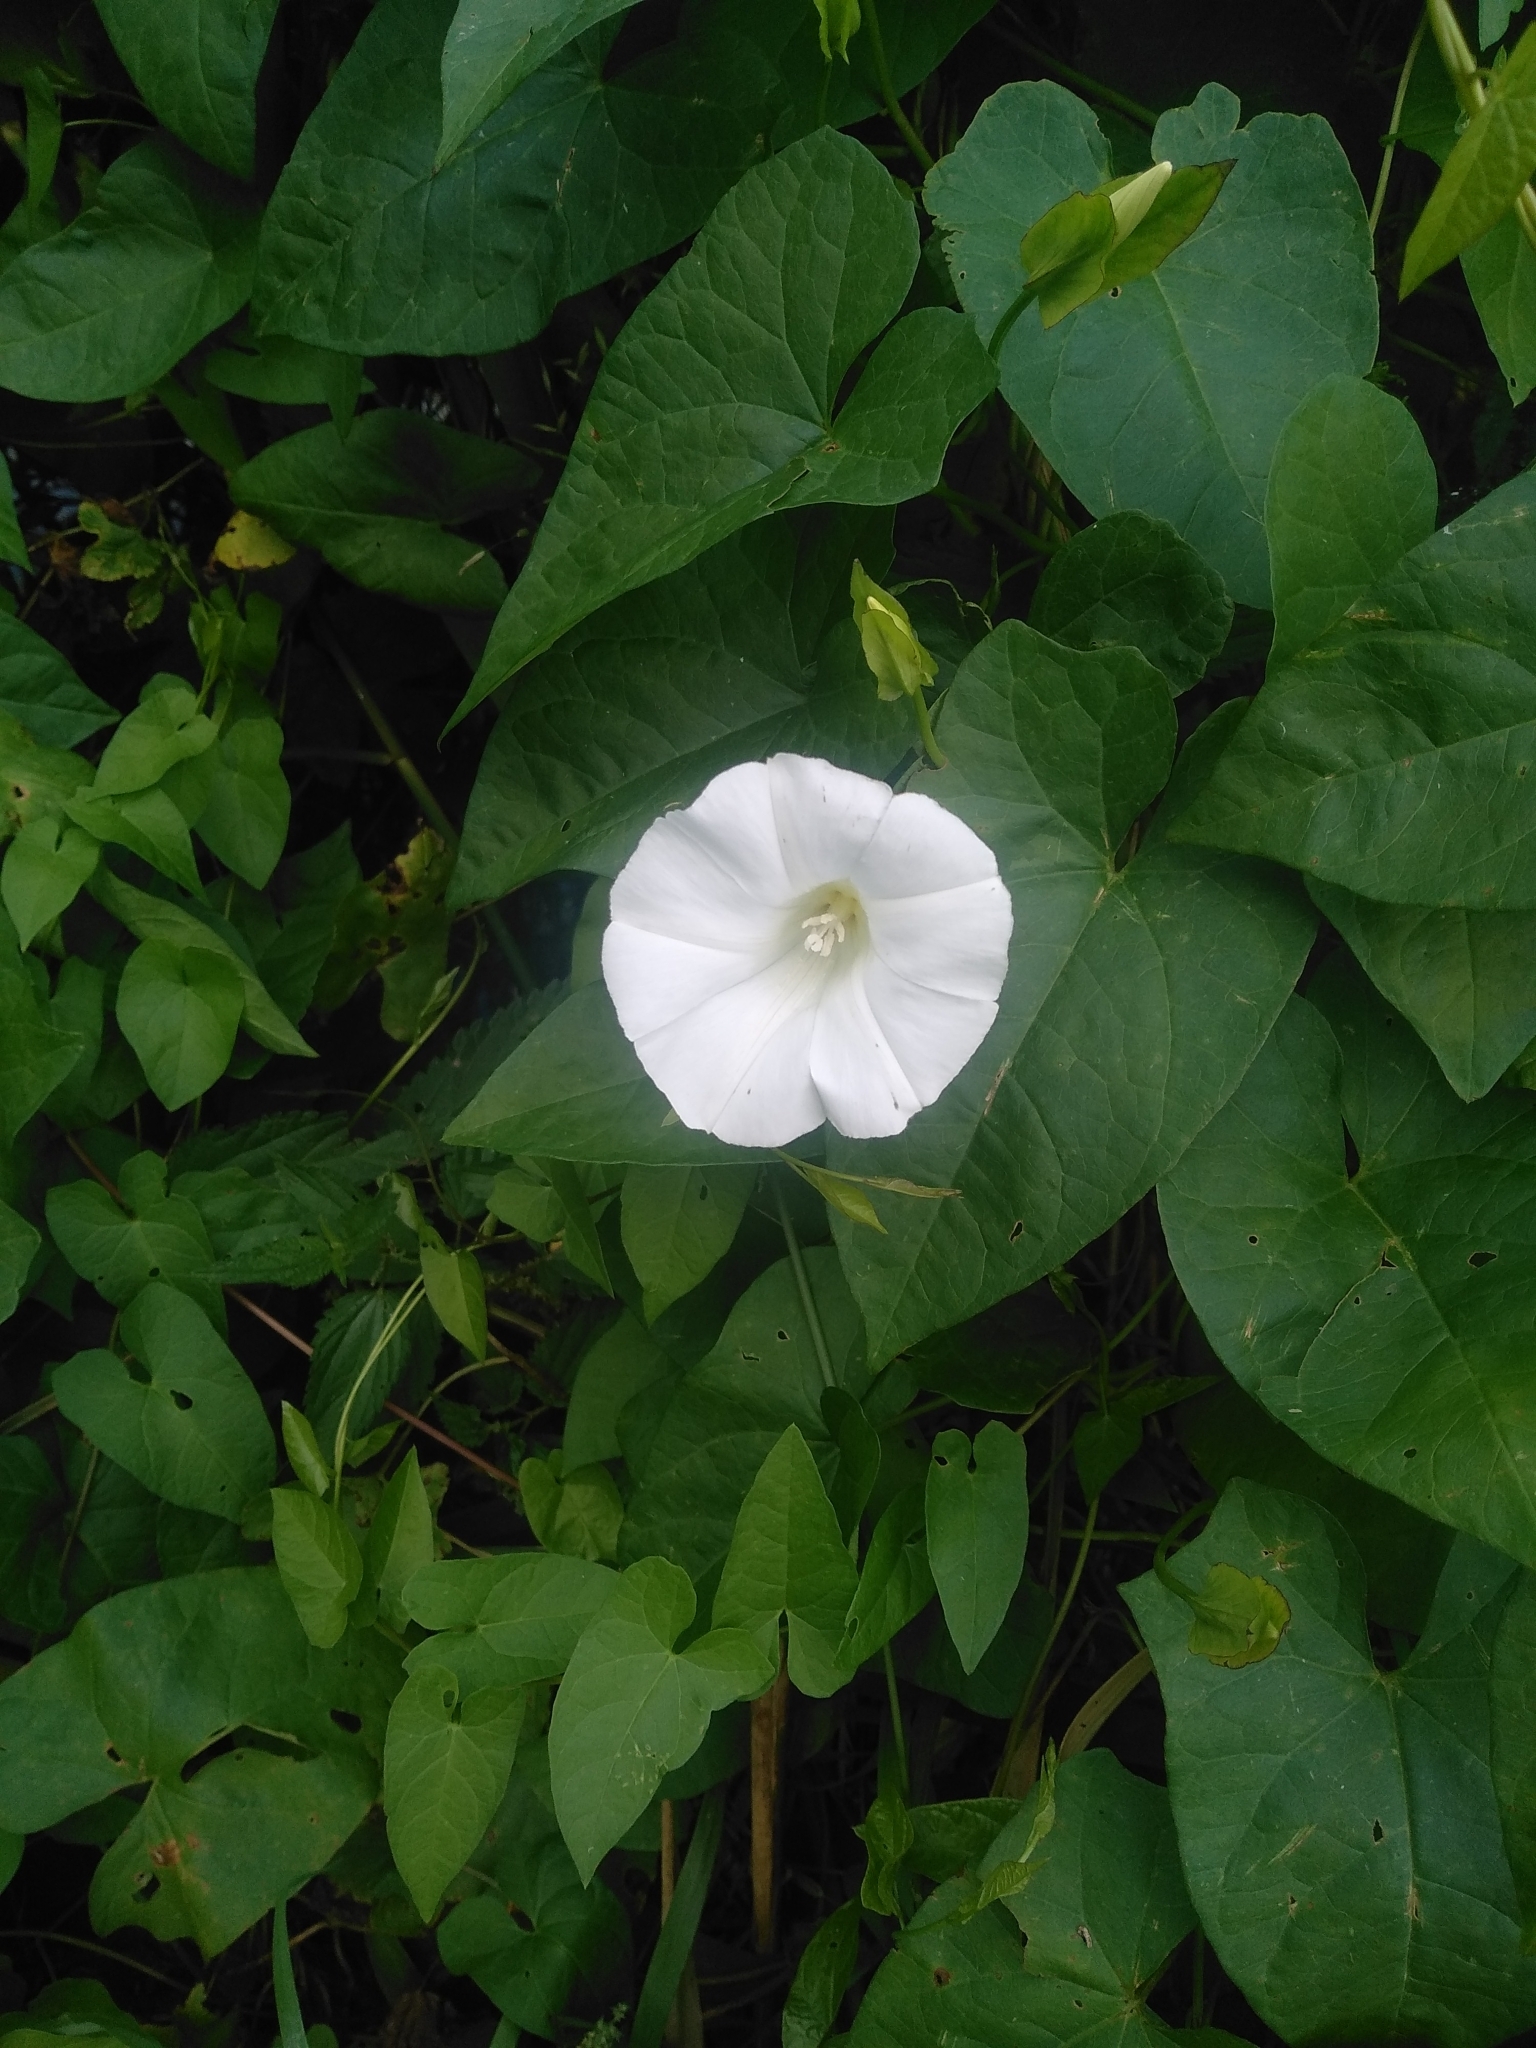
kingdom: Plantae
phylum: Tracheophyta
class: Magnoliopsida
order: Solanales
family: Convolvulaceae
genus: Calystegia
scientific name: Calystegia sepium
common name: Hedge bindweed
